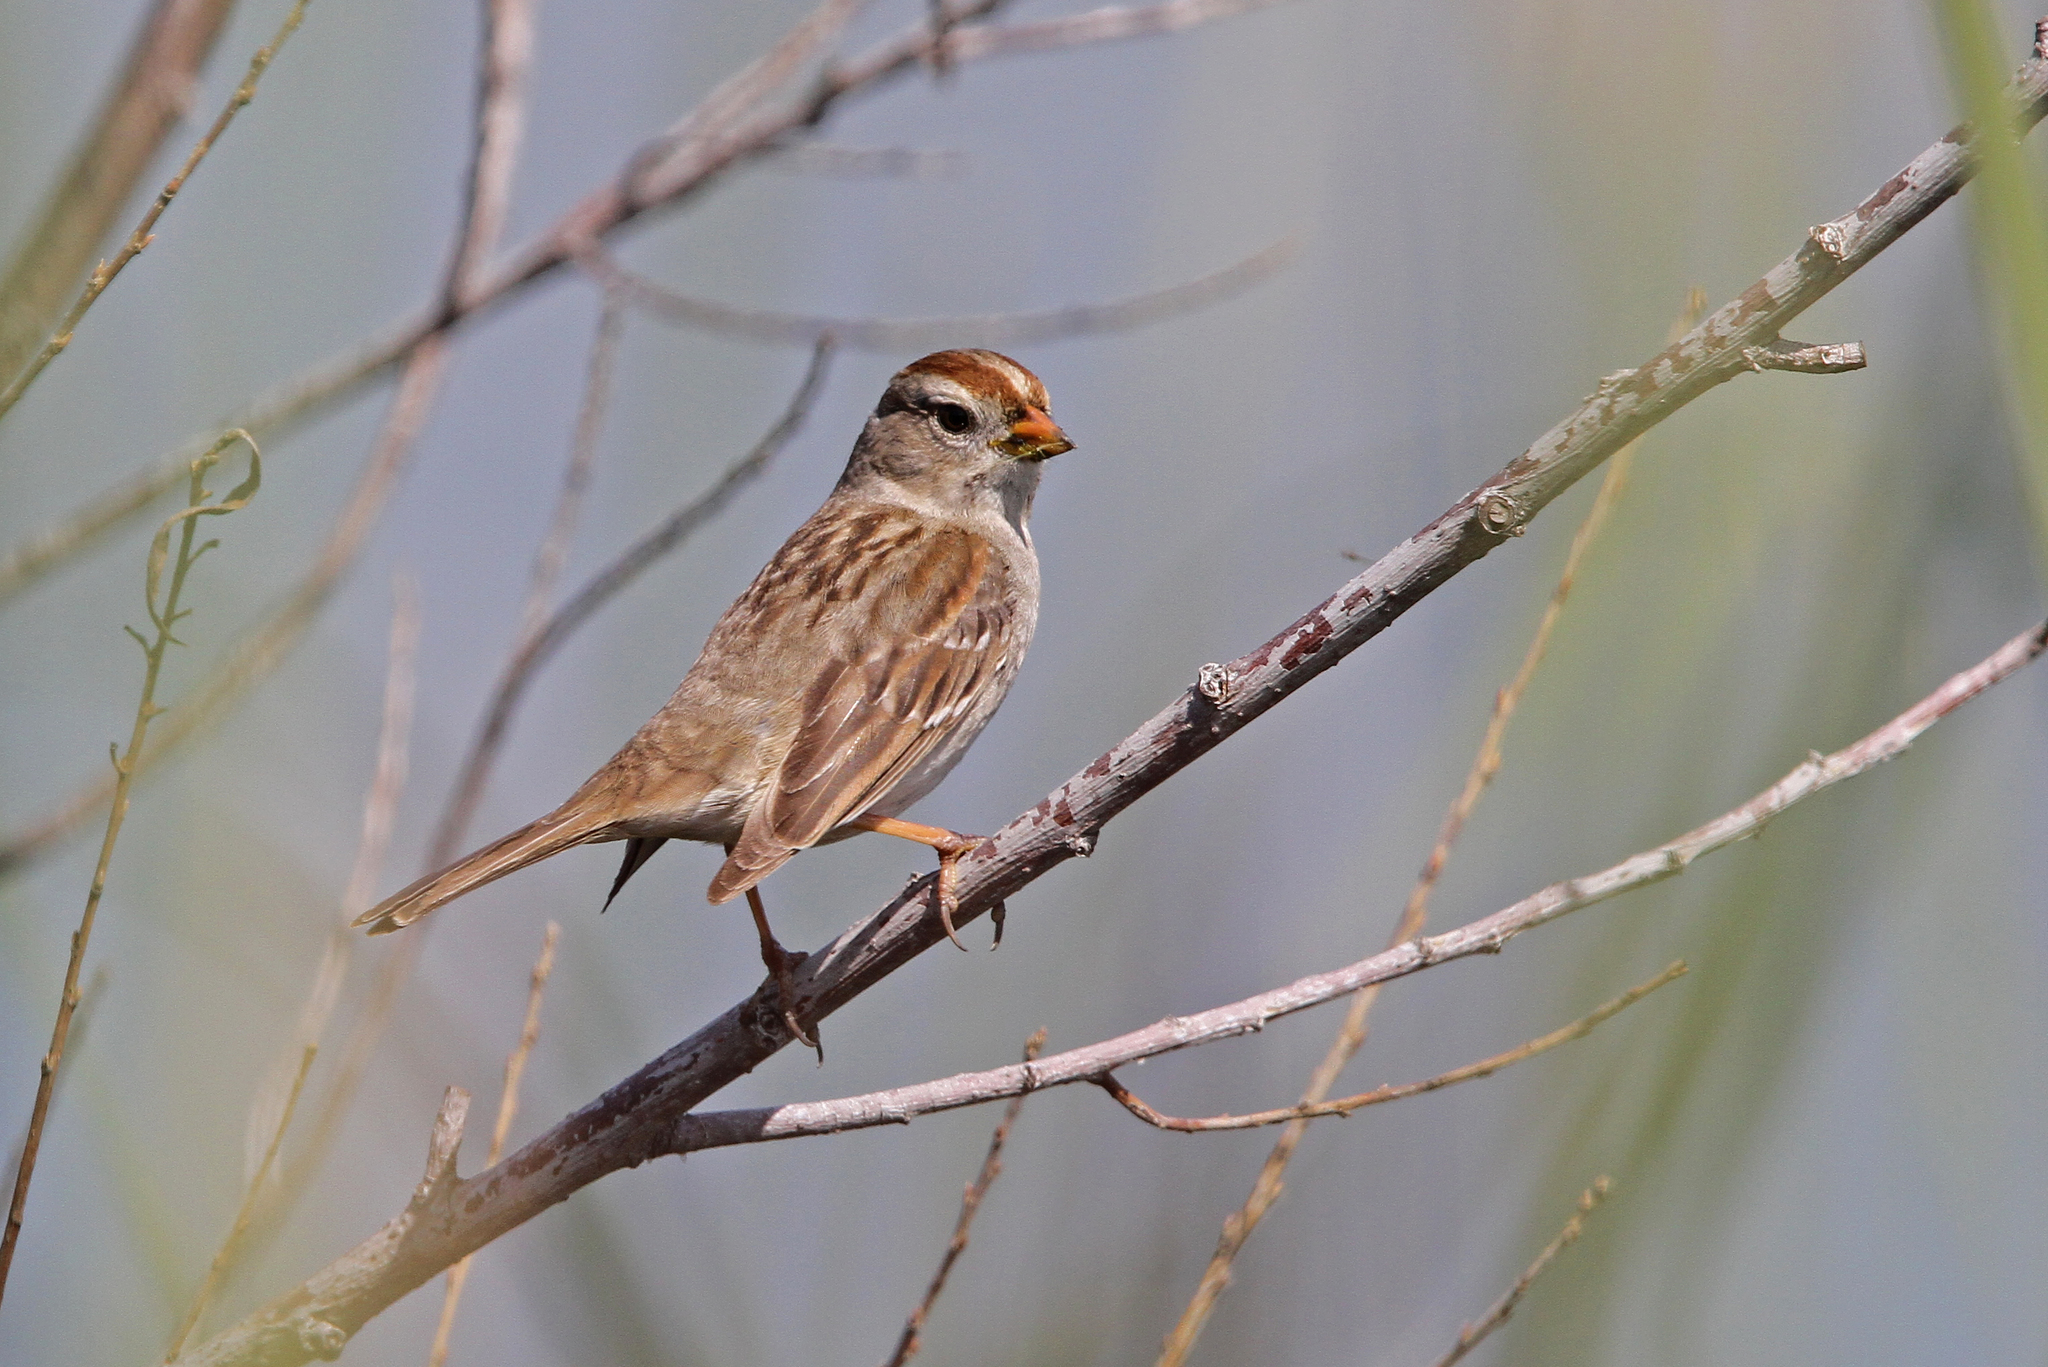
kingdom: Animalia
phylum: Chordata
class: Aves
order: Passeriformes
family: Passerellidae
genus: Zonotrichia
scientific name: Zonotrichia leucophrys
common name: White-crowned sparrow
